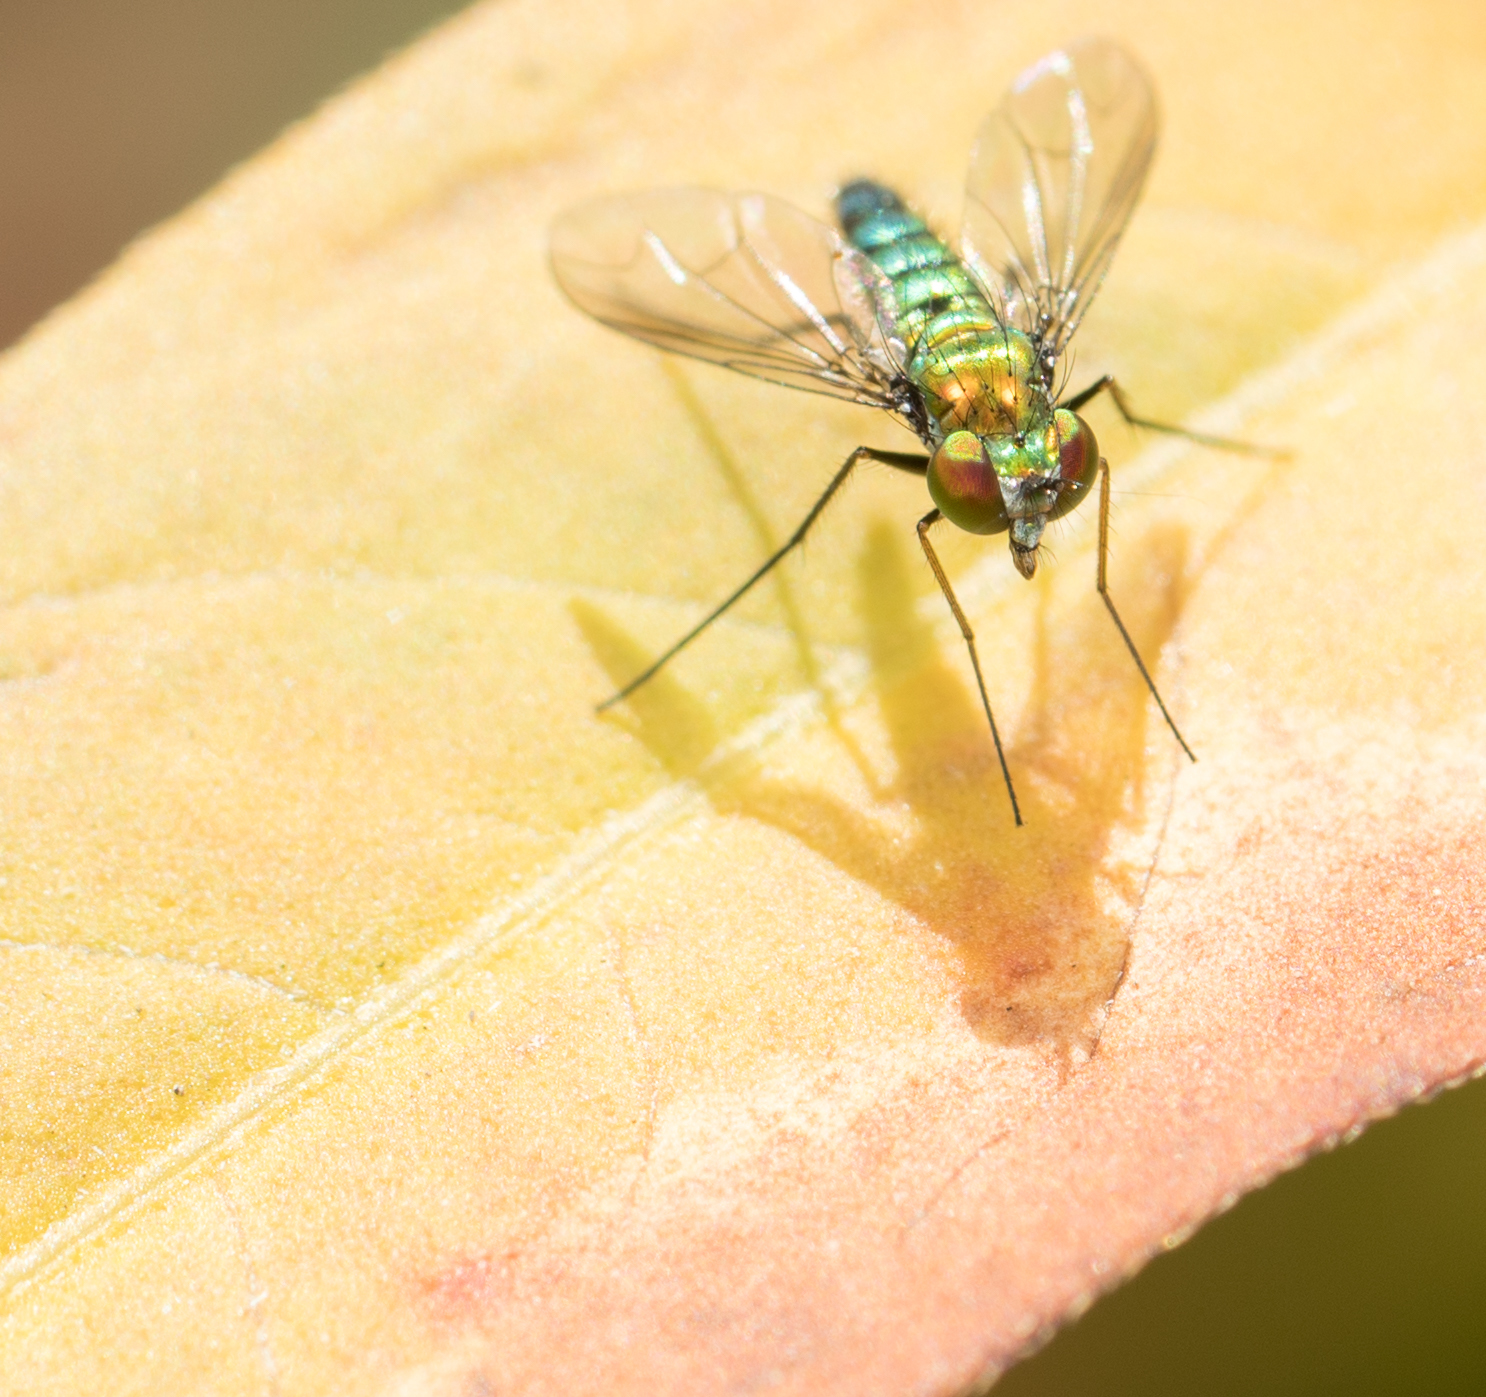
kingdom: Animalia
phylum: Arthropoda
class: Insecta
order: Diptera
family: Dolichopodidae
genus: Condylostylus
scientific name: Condylostylus longicornis
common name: Long-legged fly
